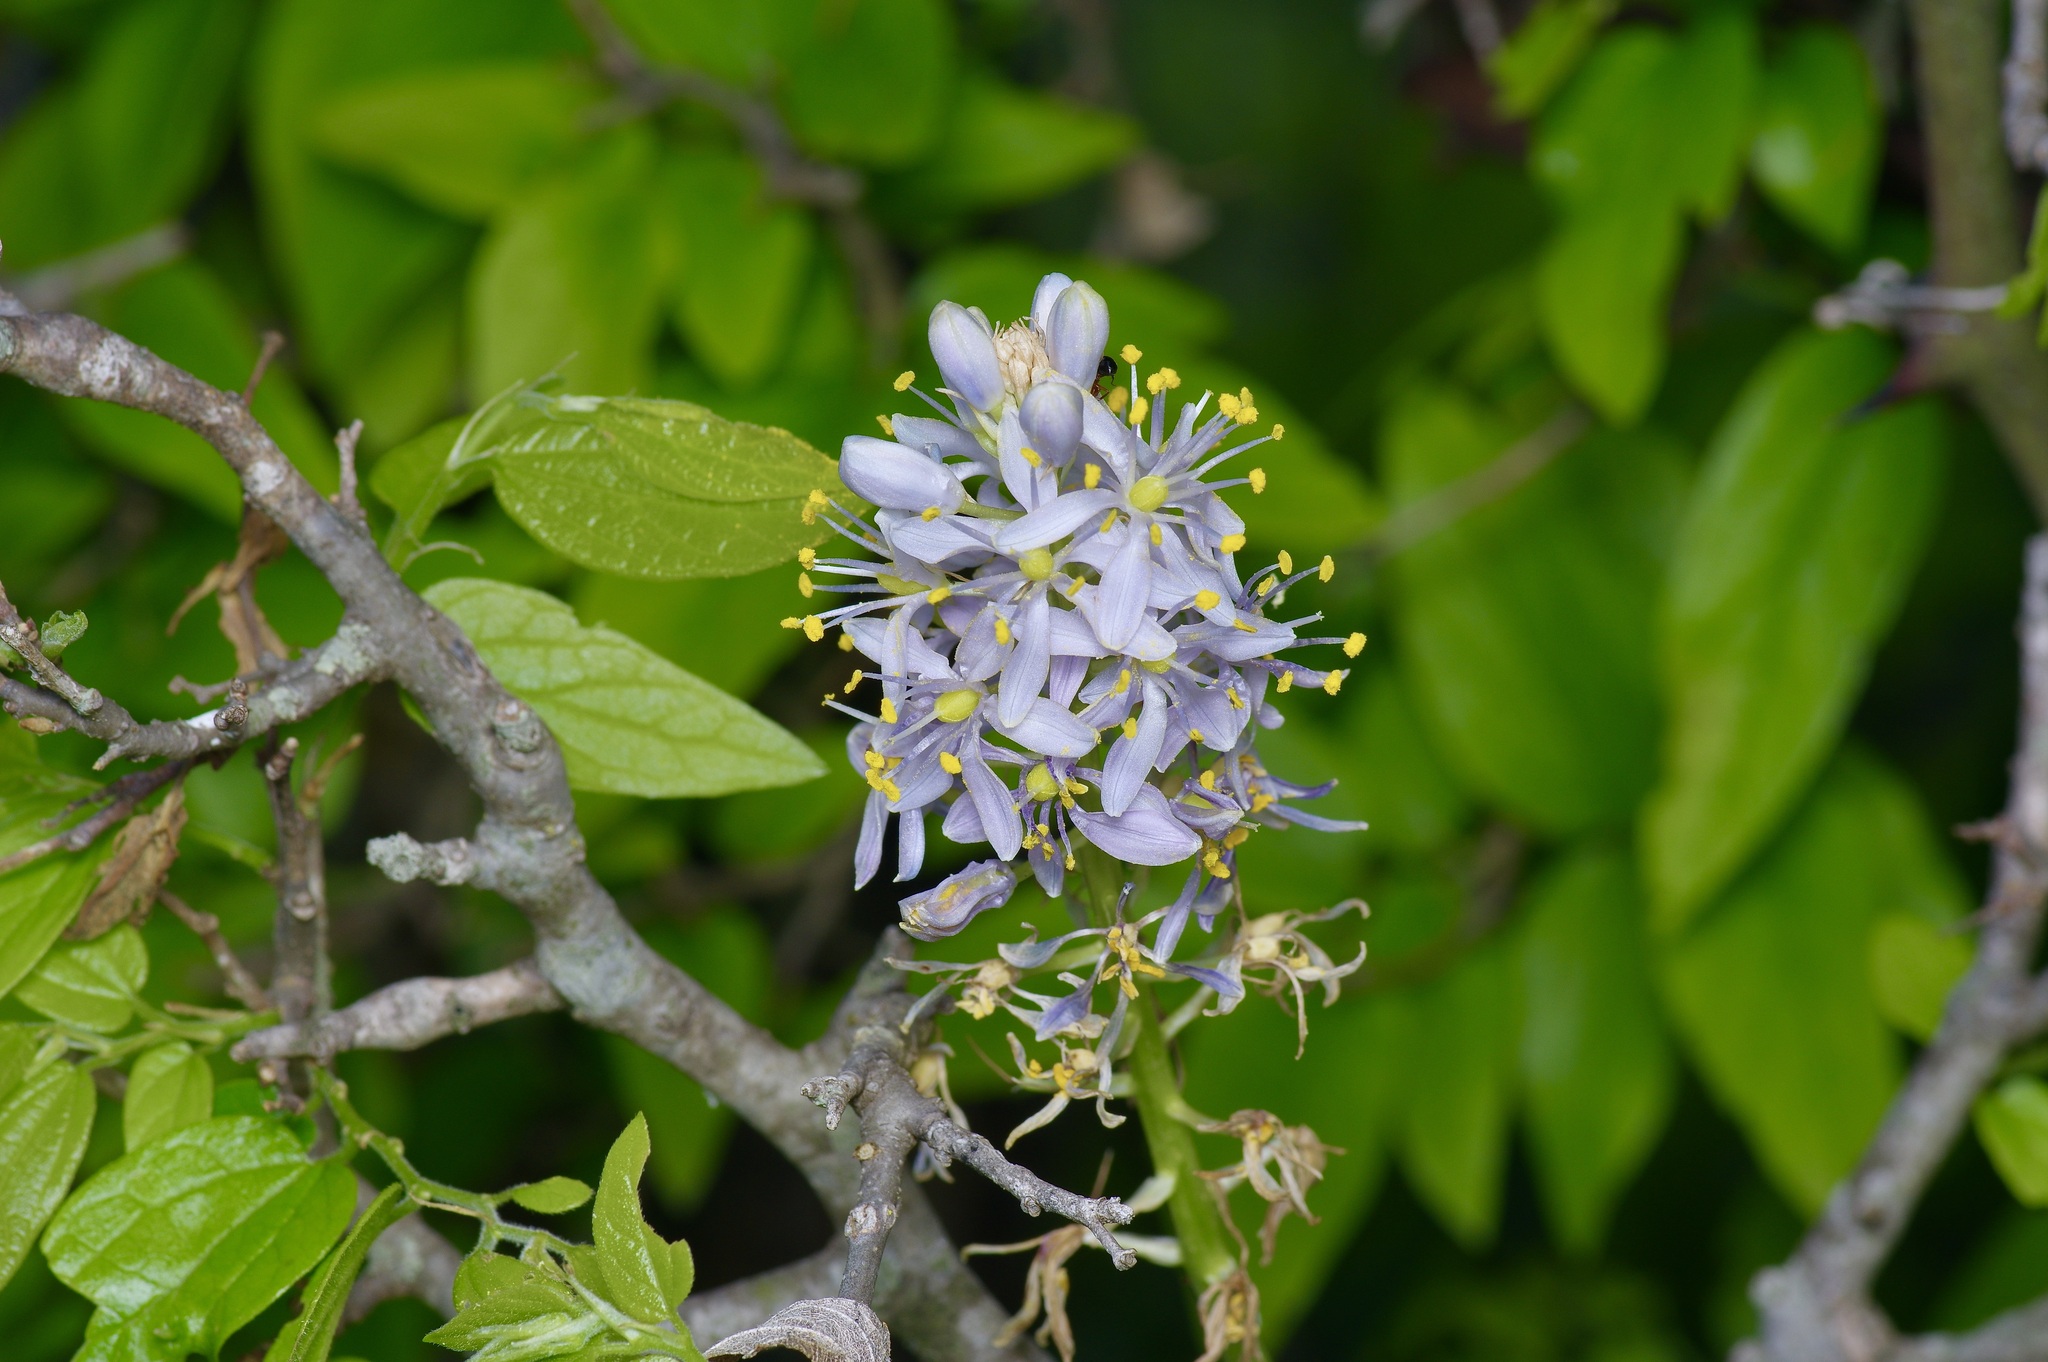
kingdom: Plantae
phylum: Tracheophyta
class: Liliopsida
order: Asparagales
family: Asparagaceae
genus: Camassia
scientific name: Camassia scilloides
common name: Wild hyacinth
